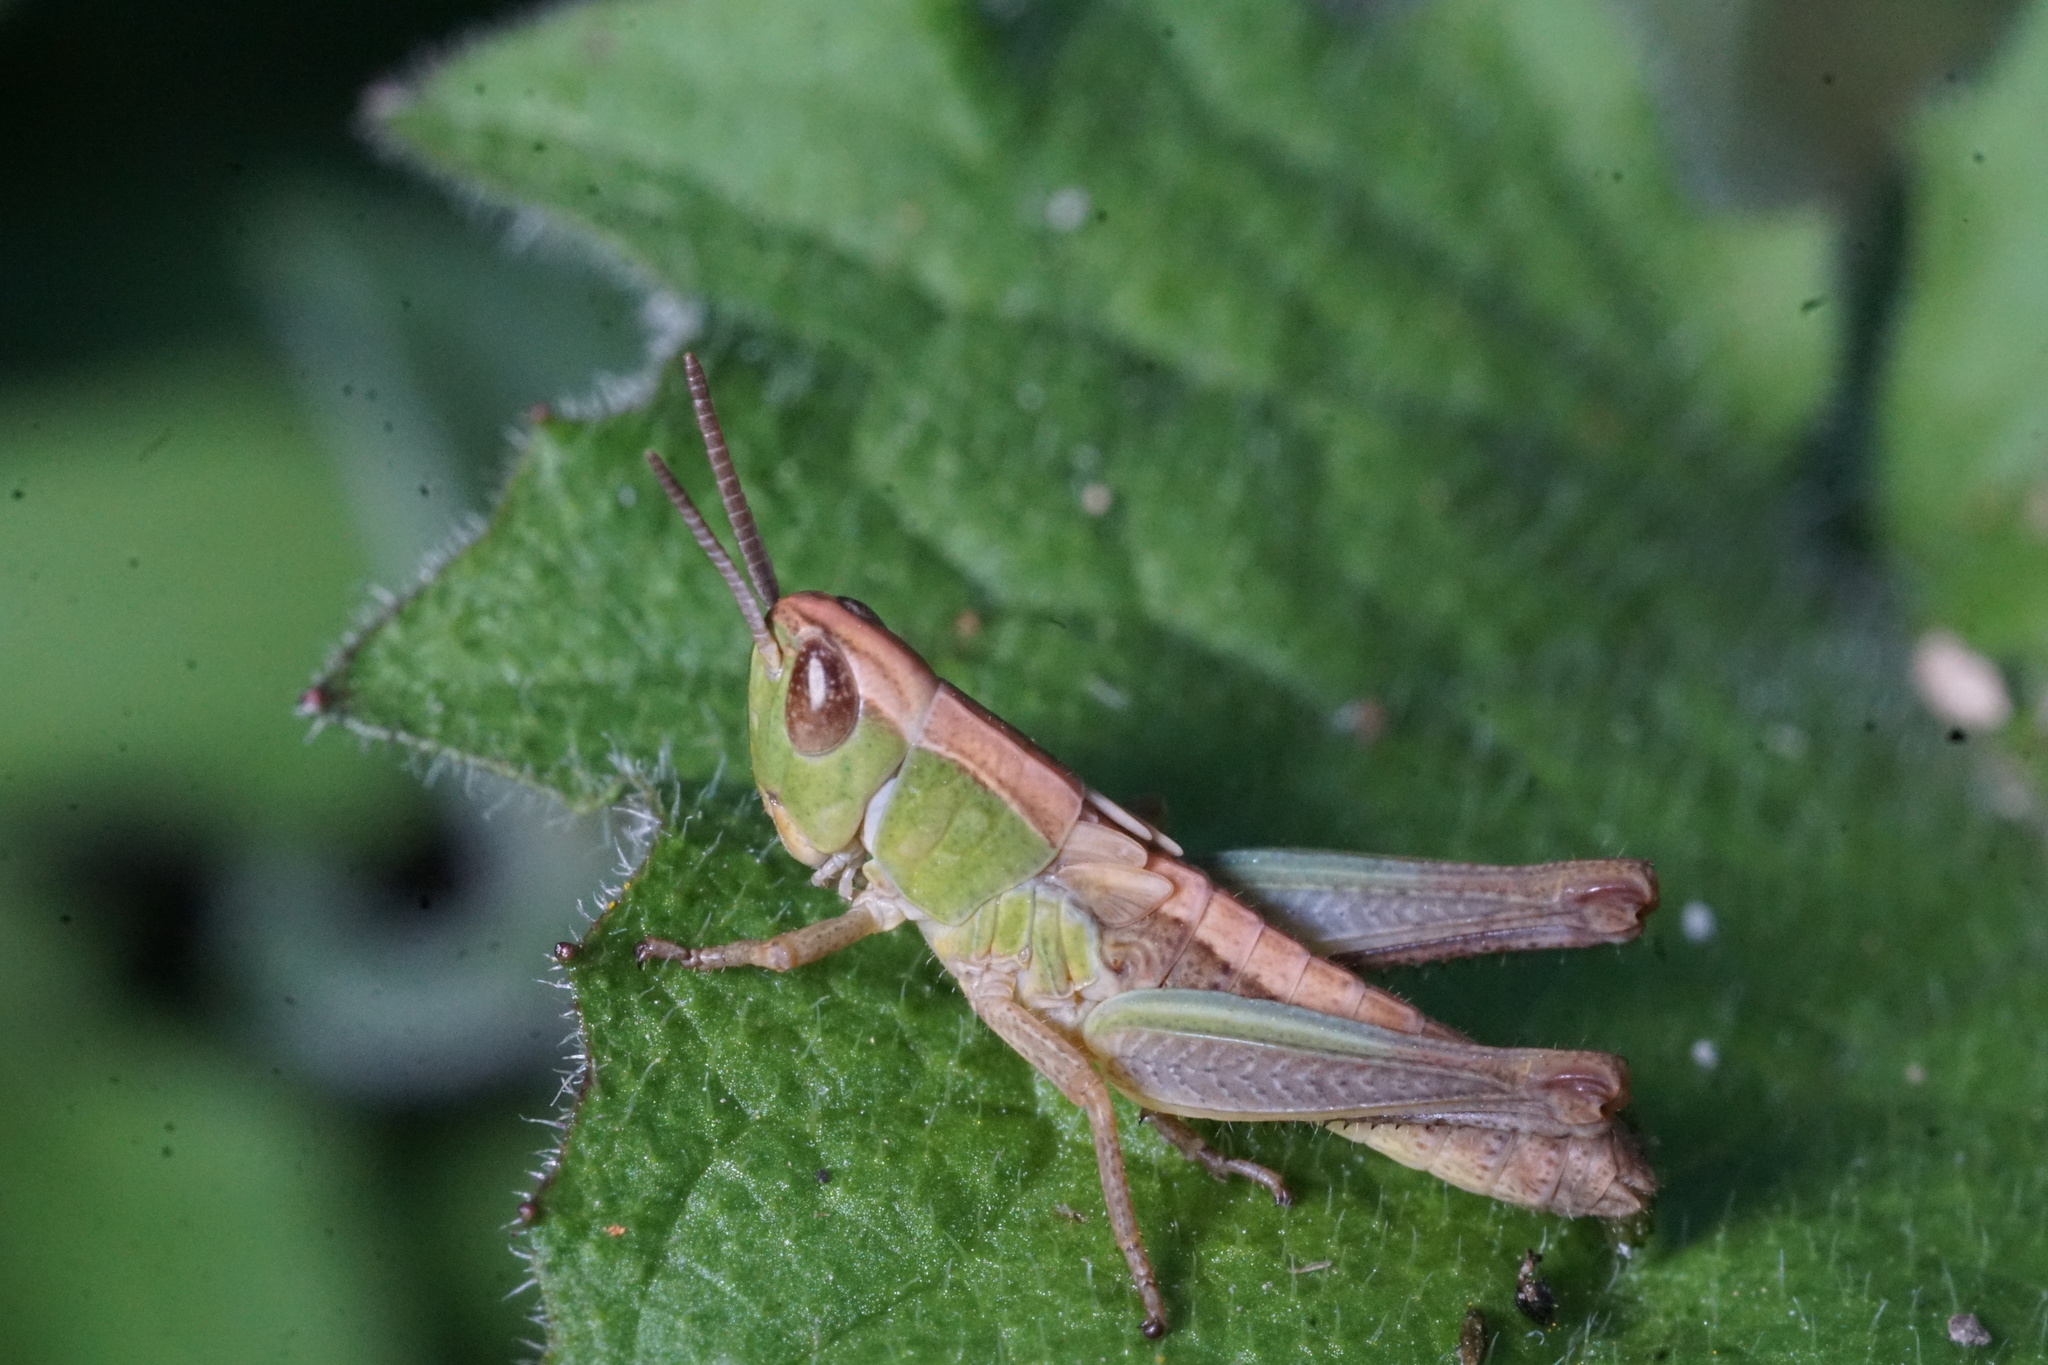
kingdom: Animalia
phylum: Arthropoda
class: Insecta
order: Orthoptera
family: Acrididae
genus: Pseudochorthippus
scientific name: Pseudochorthippus parallelus
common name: Meadow grasshopper
